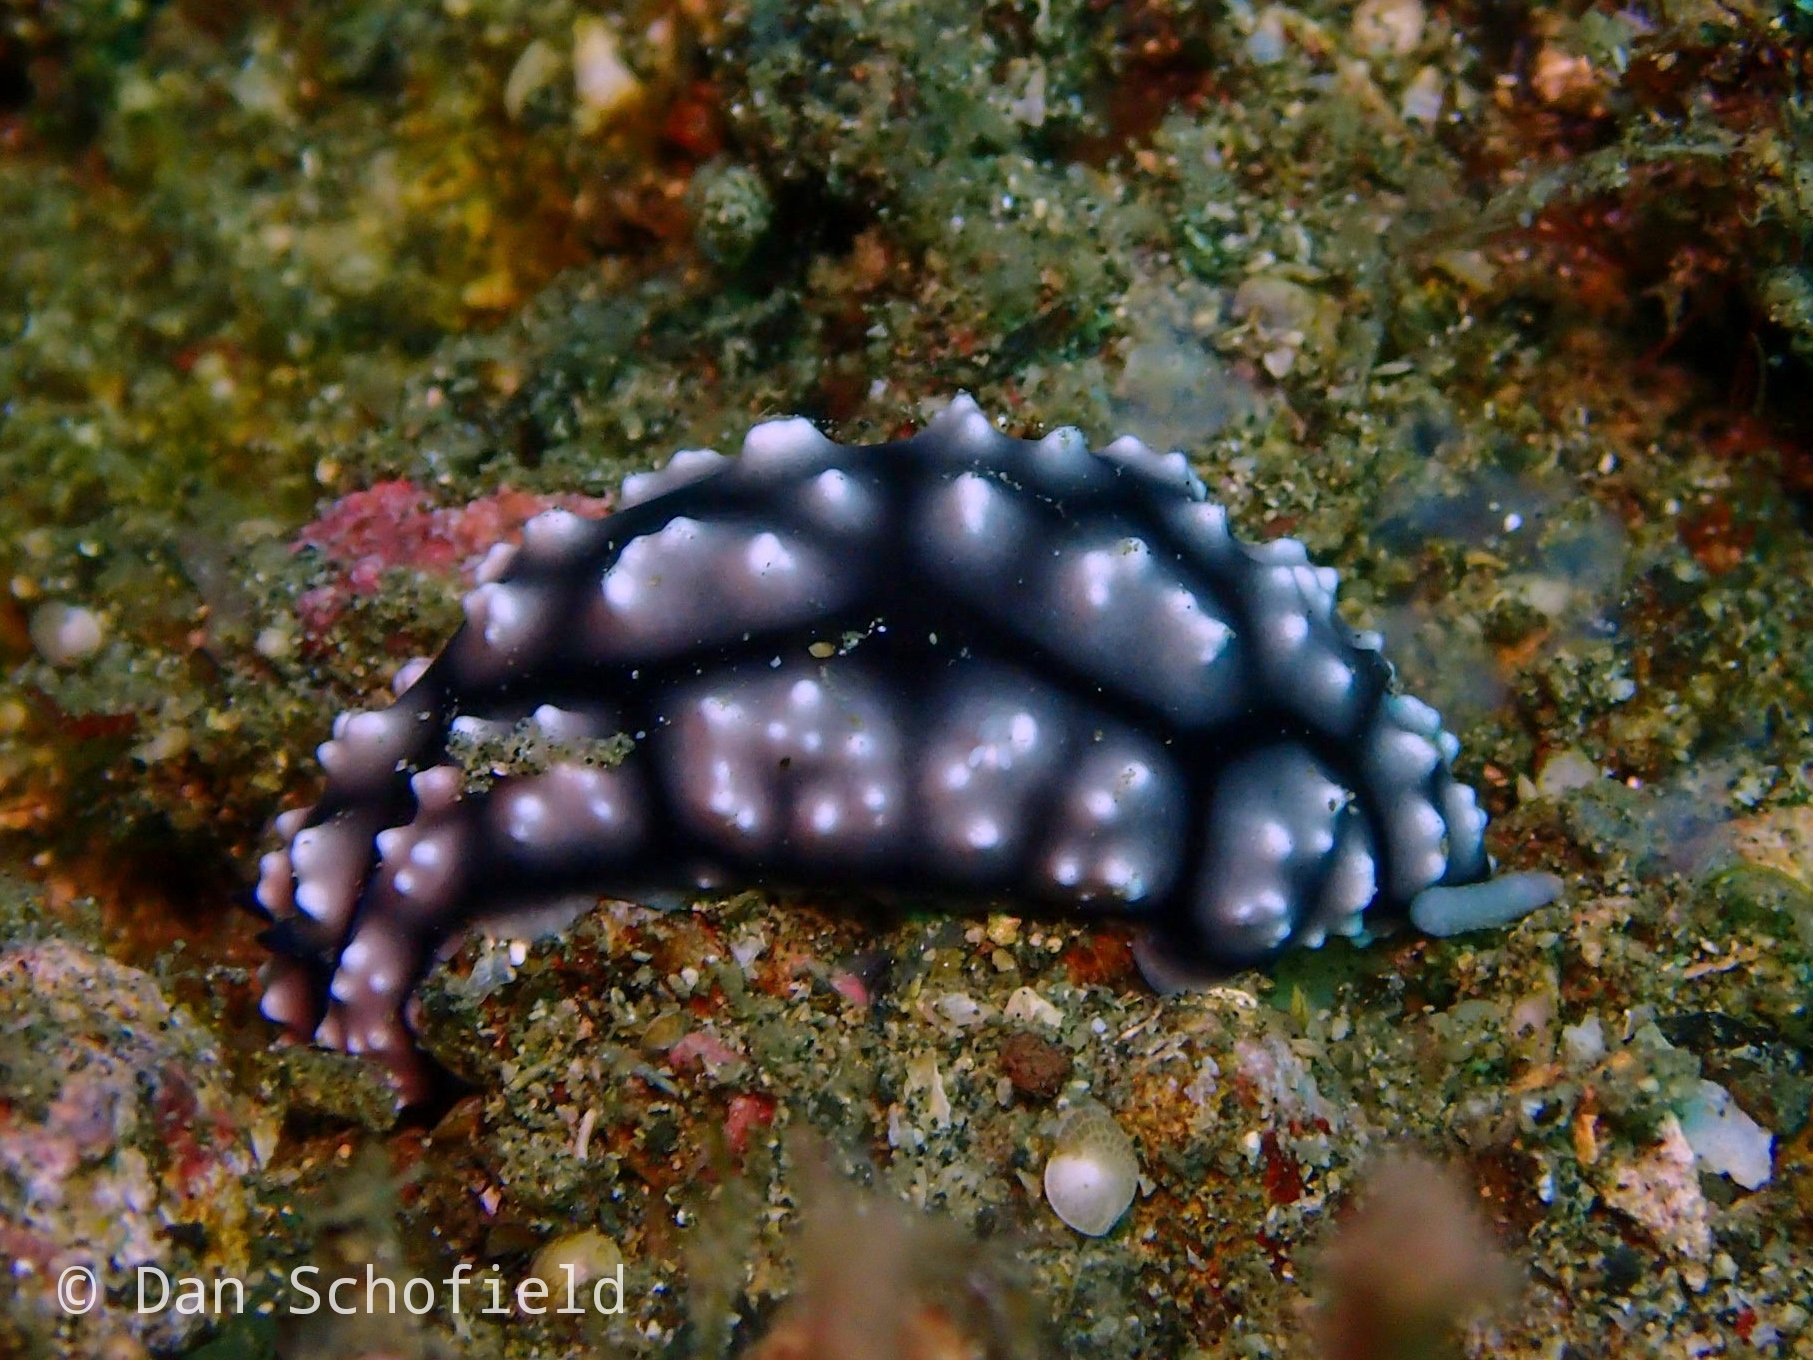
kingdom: Animalia
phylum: Mollusca
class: Gastropoda
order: Nudibranchia
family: Phyllidiidae
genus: Phyllidiella
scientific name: Phyllidiella pustulosa
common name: Pustular phyllidia
